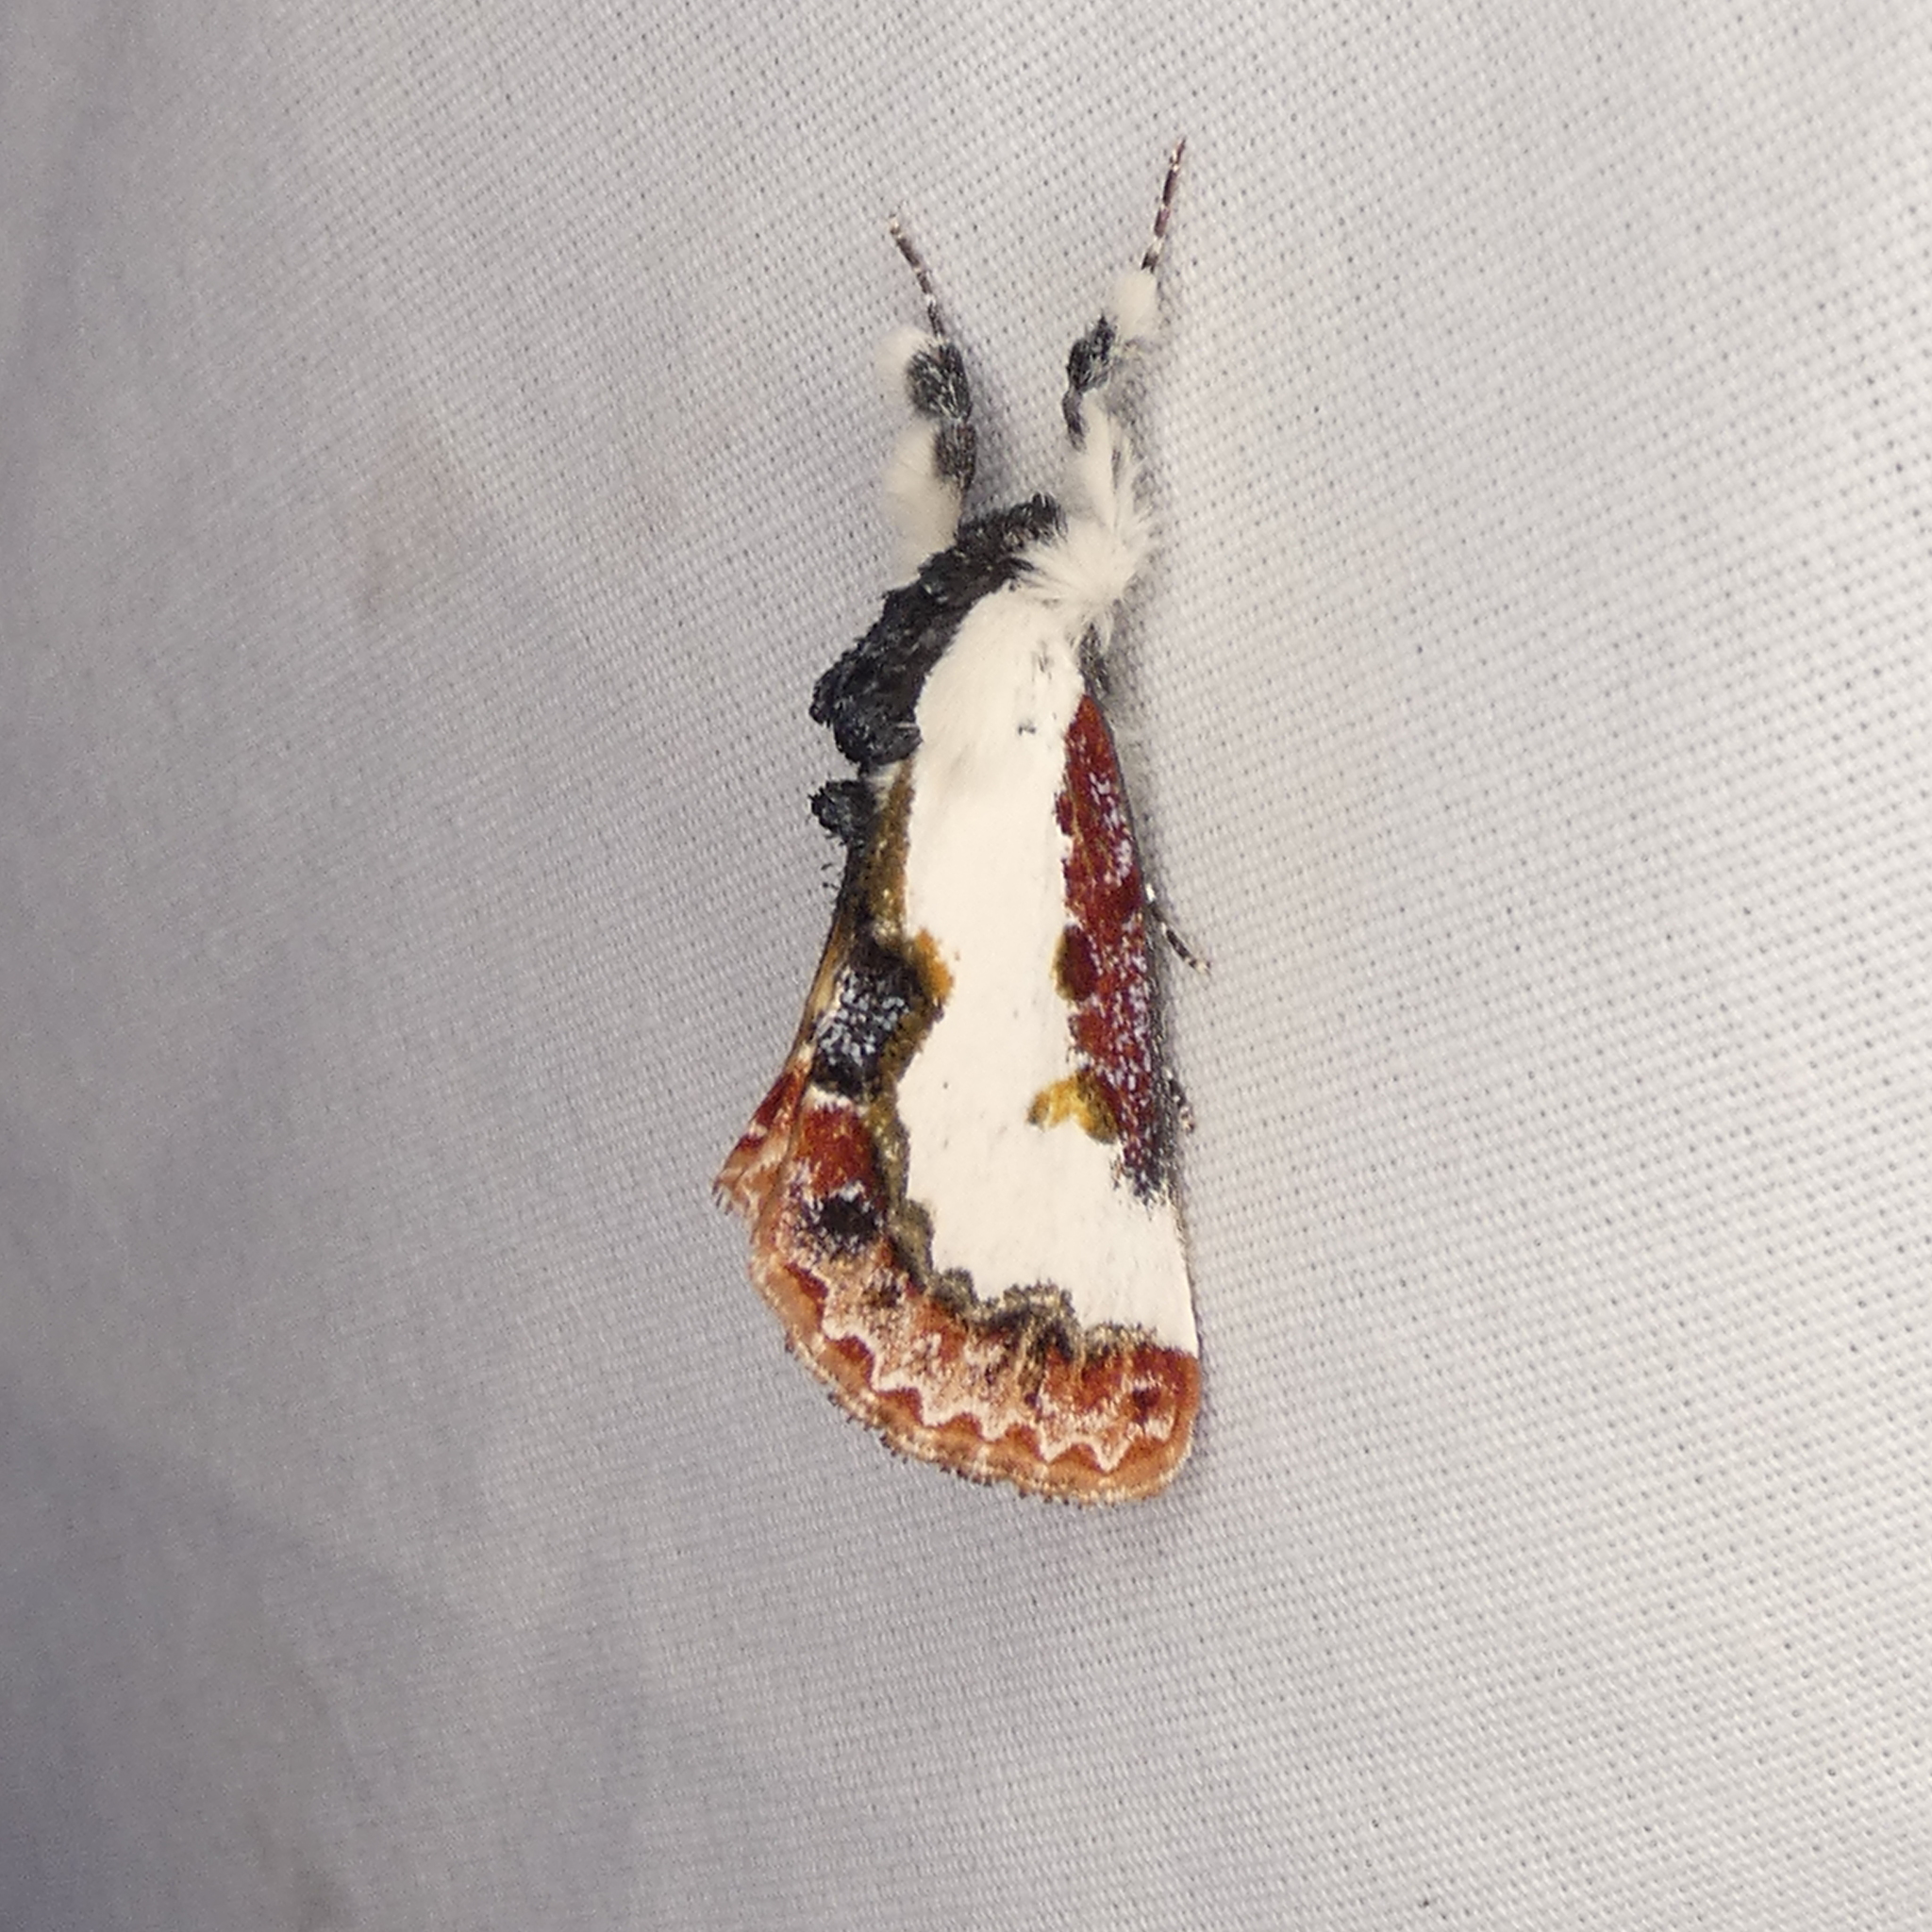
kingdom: Animalia
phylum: Arthropoda
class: Insecta
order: Lepidoptera
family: Noctuidae
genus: Eudryas
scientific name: Eudryas unio
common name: Pearly wood-nymph
